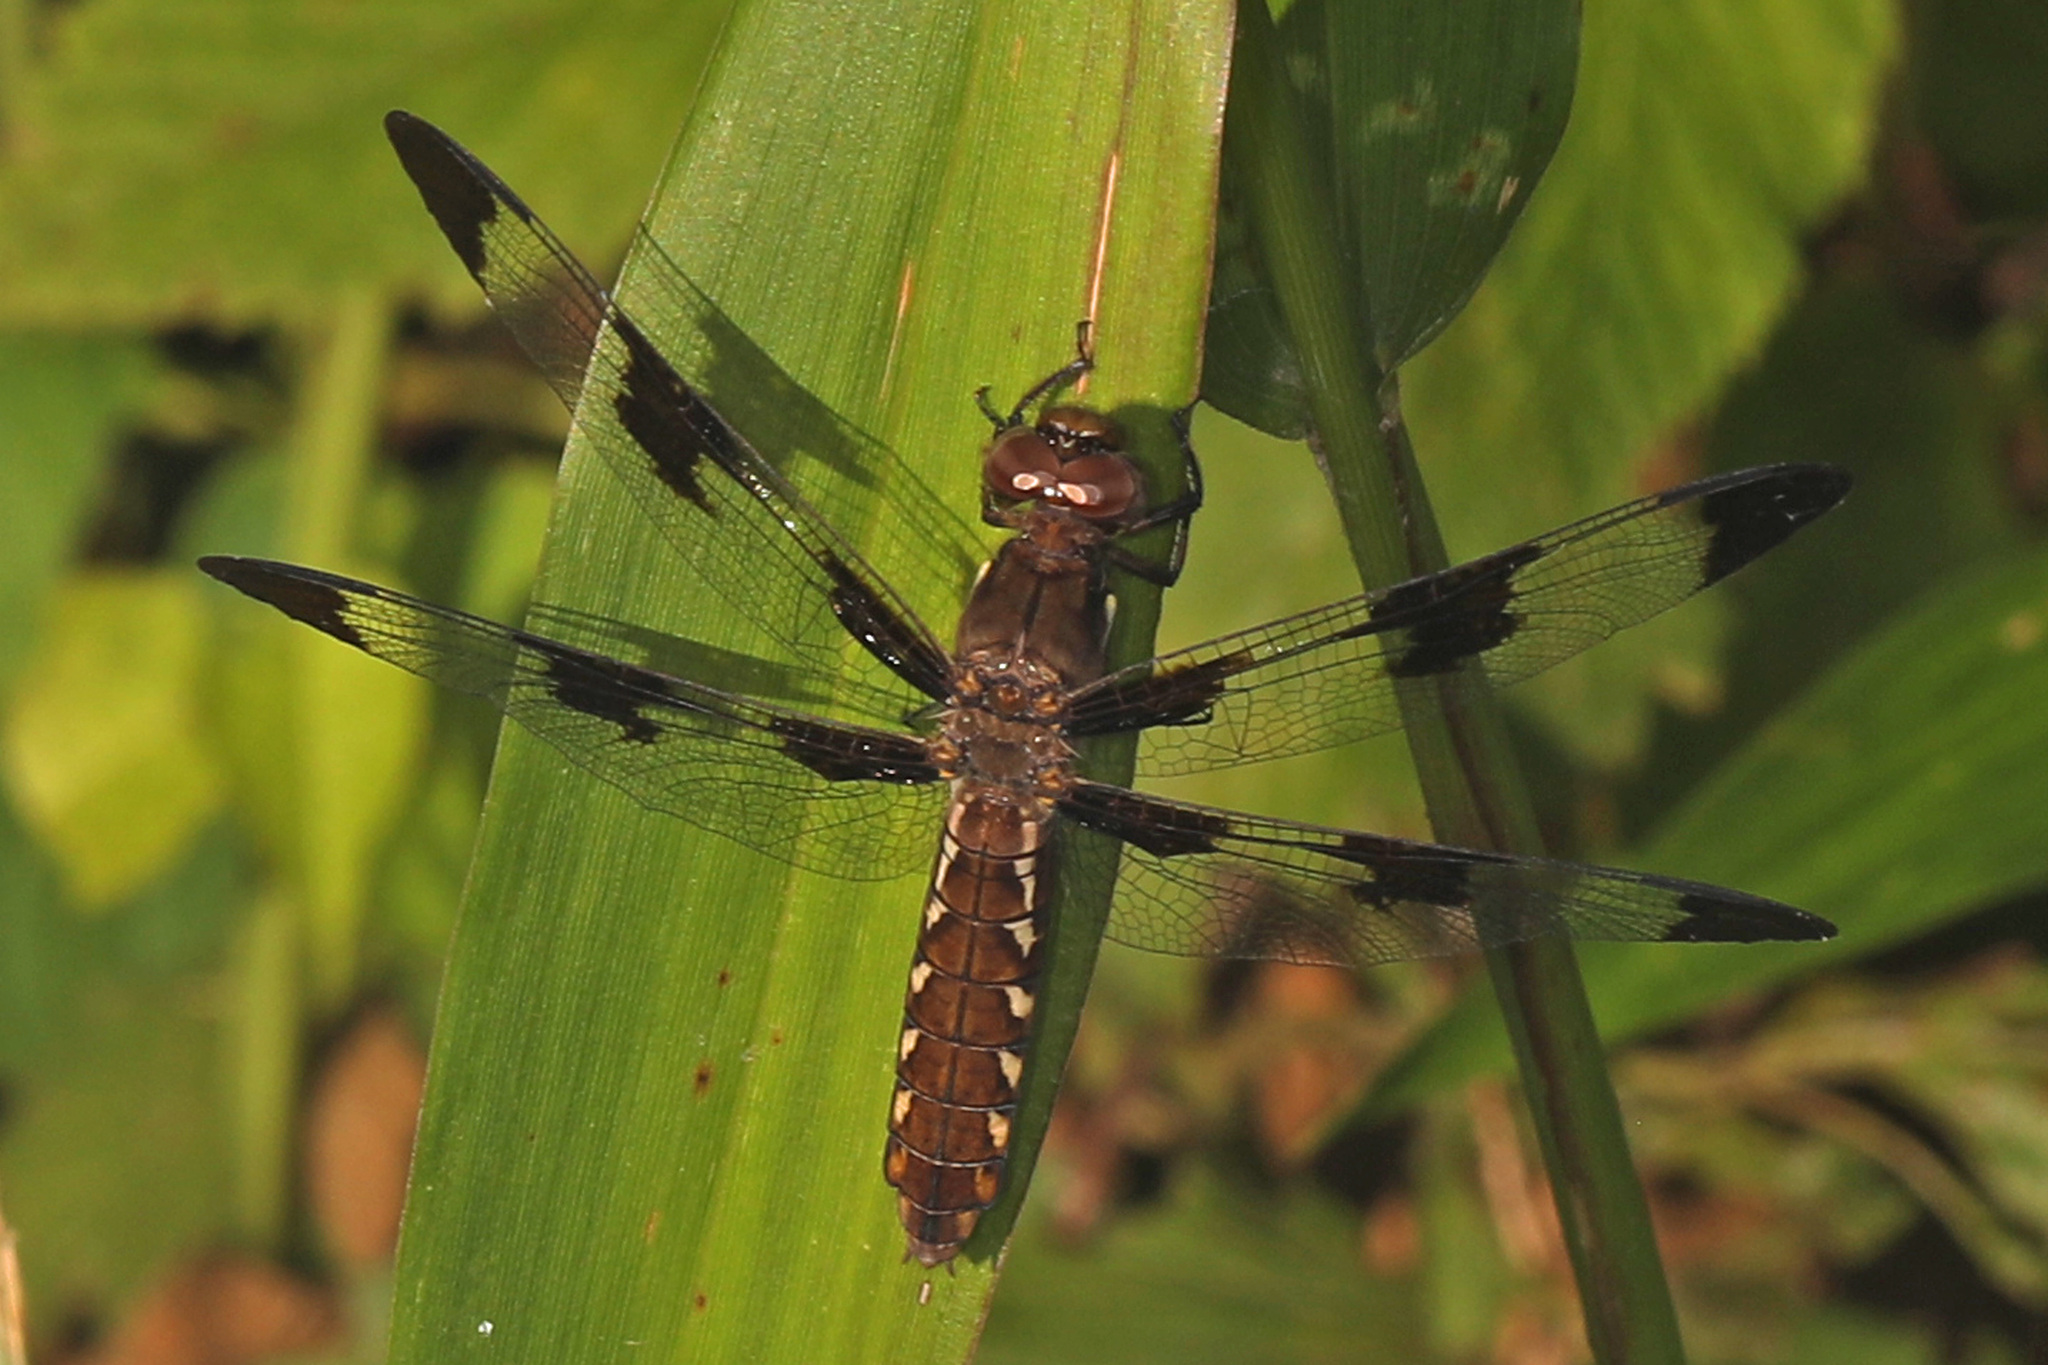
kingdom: Animalia
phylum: Arthropoda
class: Insecta
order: Odonata
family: Libellulidae
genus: Plathemis
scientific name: Plathemis lydia
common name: Common whitetail
